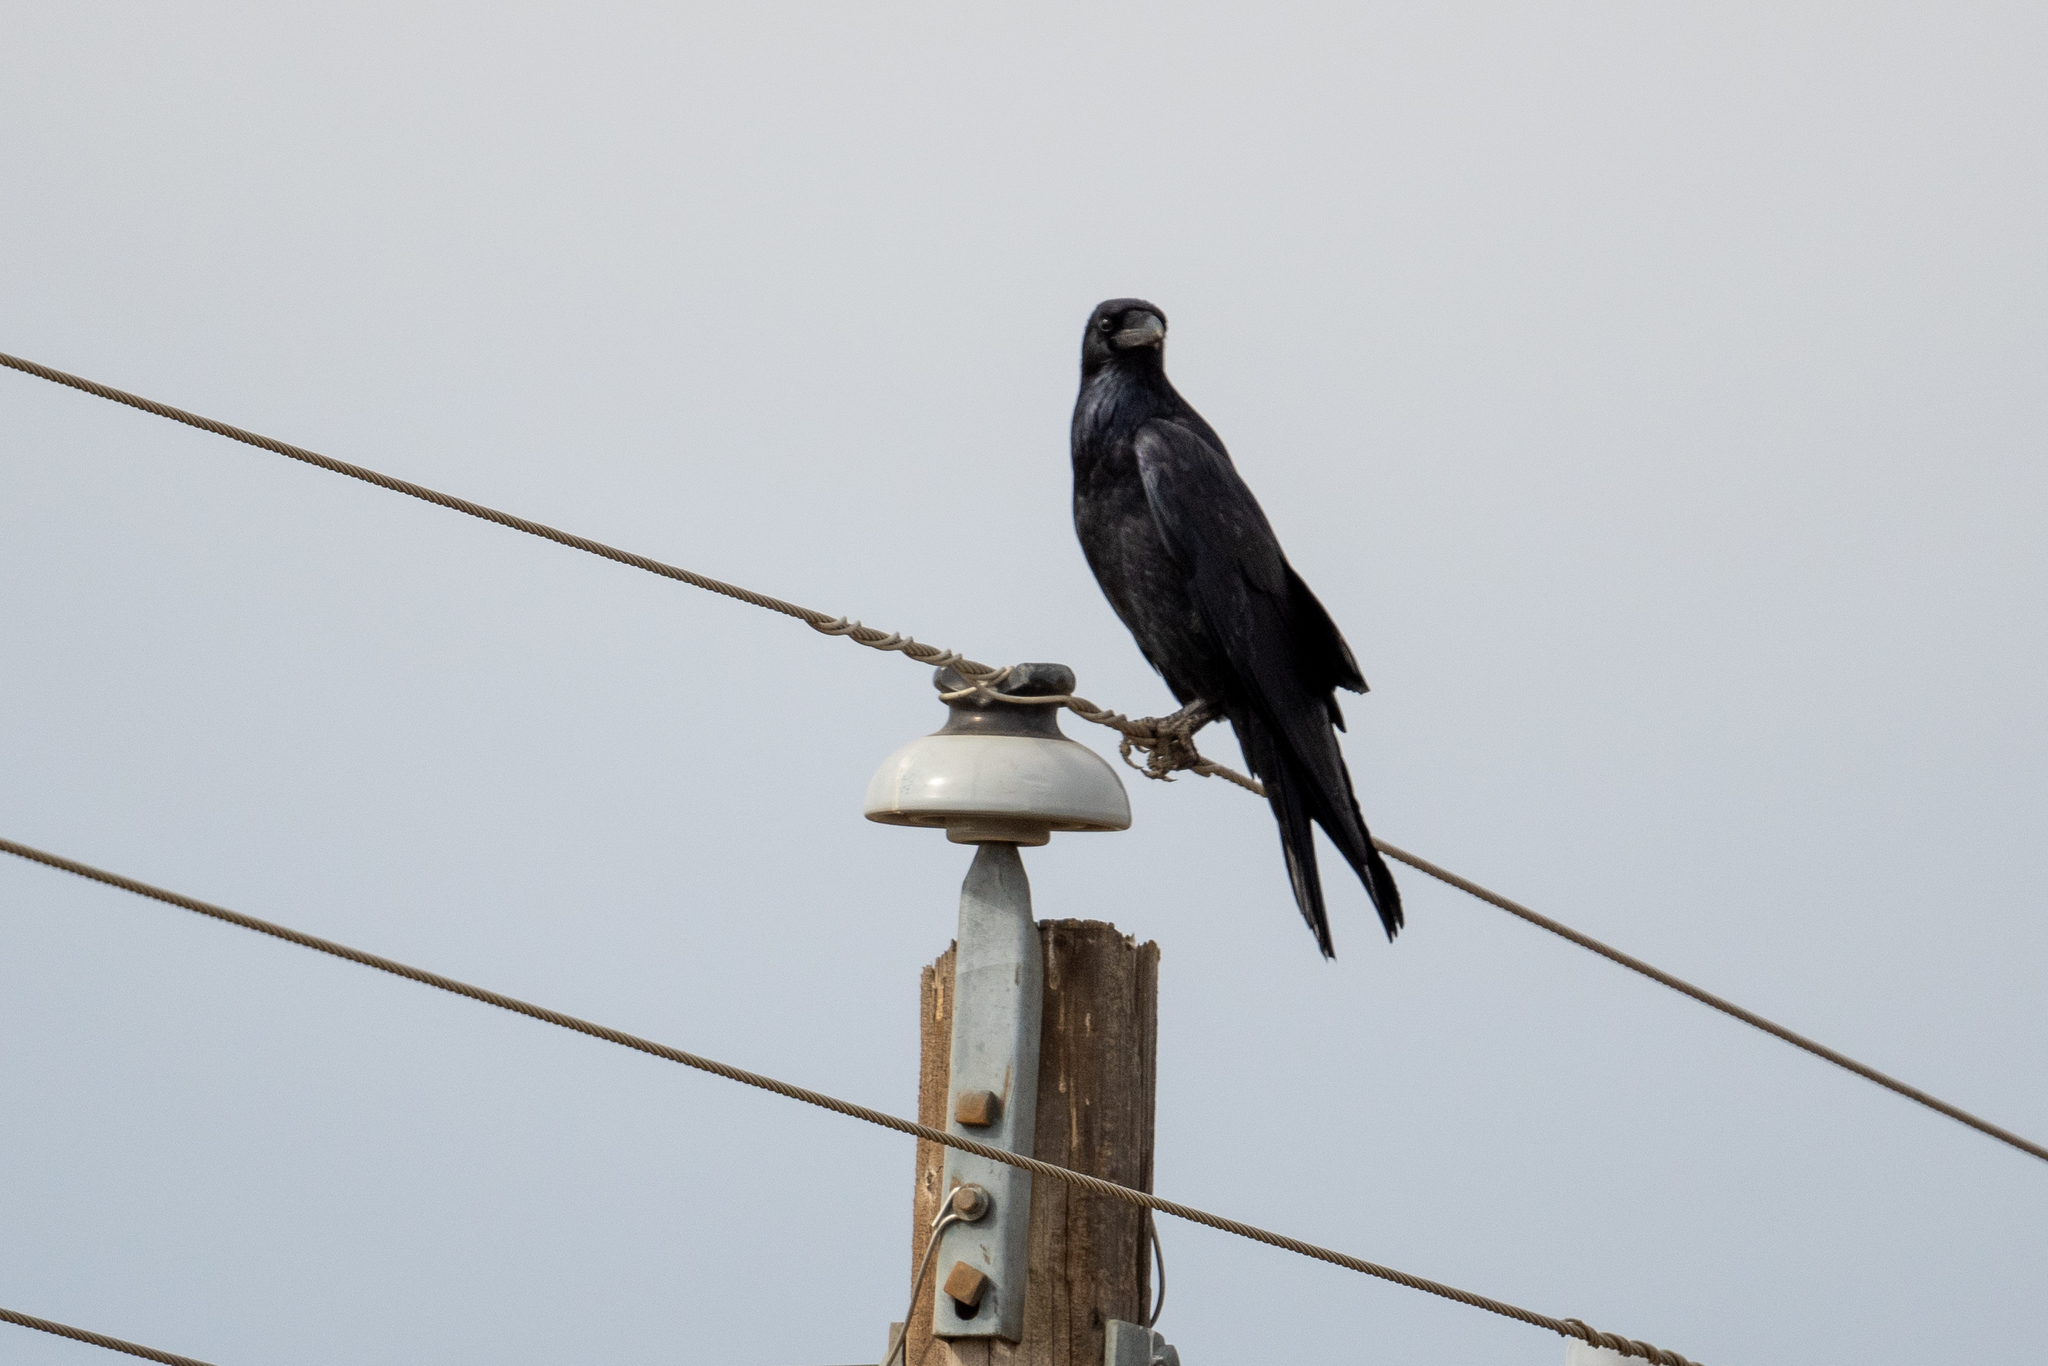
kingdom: Animalia
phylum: Chordata
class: Aves
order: Passeriformes
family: Corvidae
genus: Corvus
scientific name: Corvus corax
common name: Common raven
